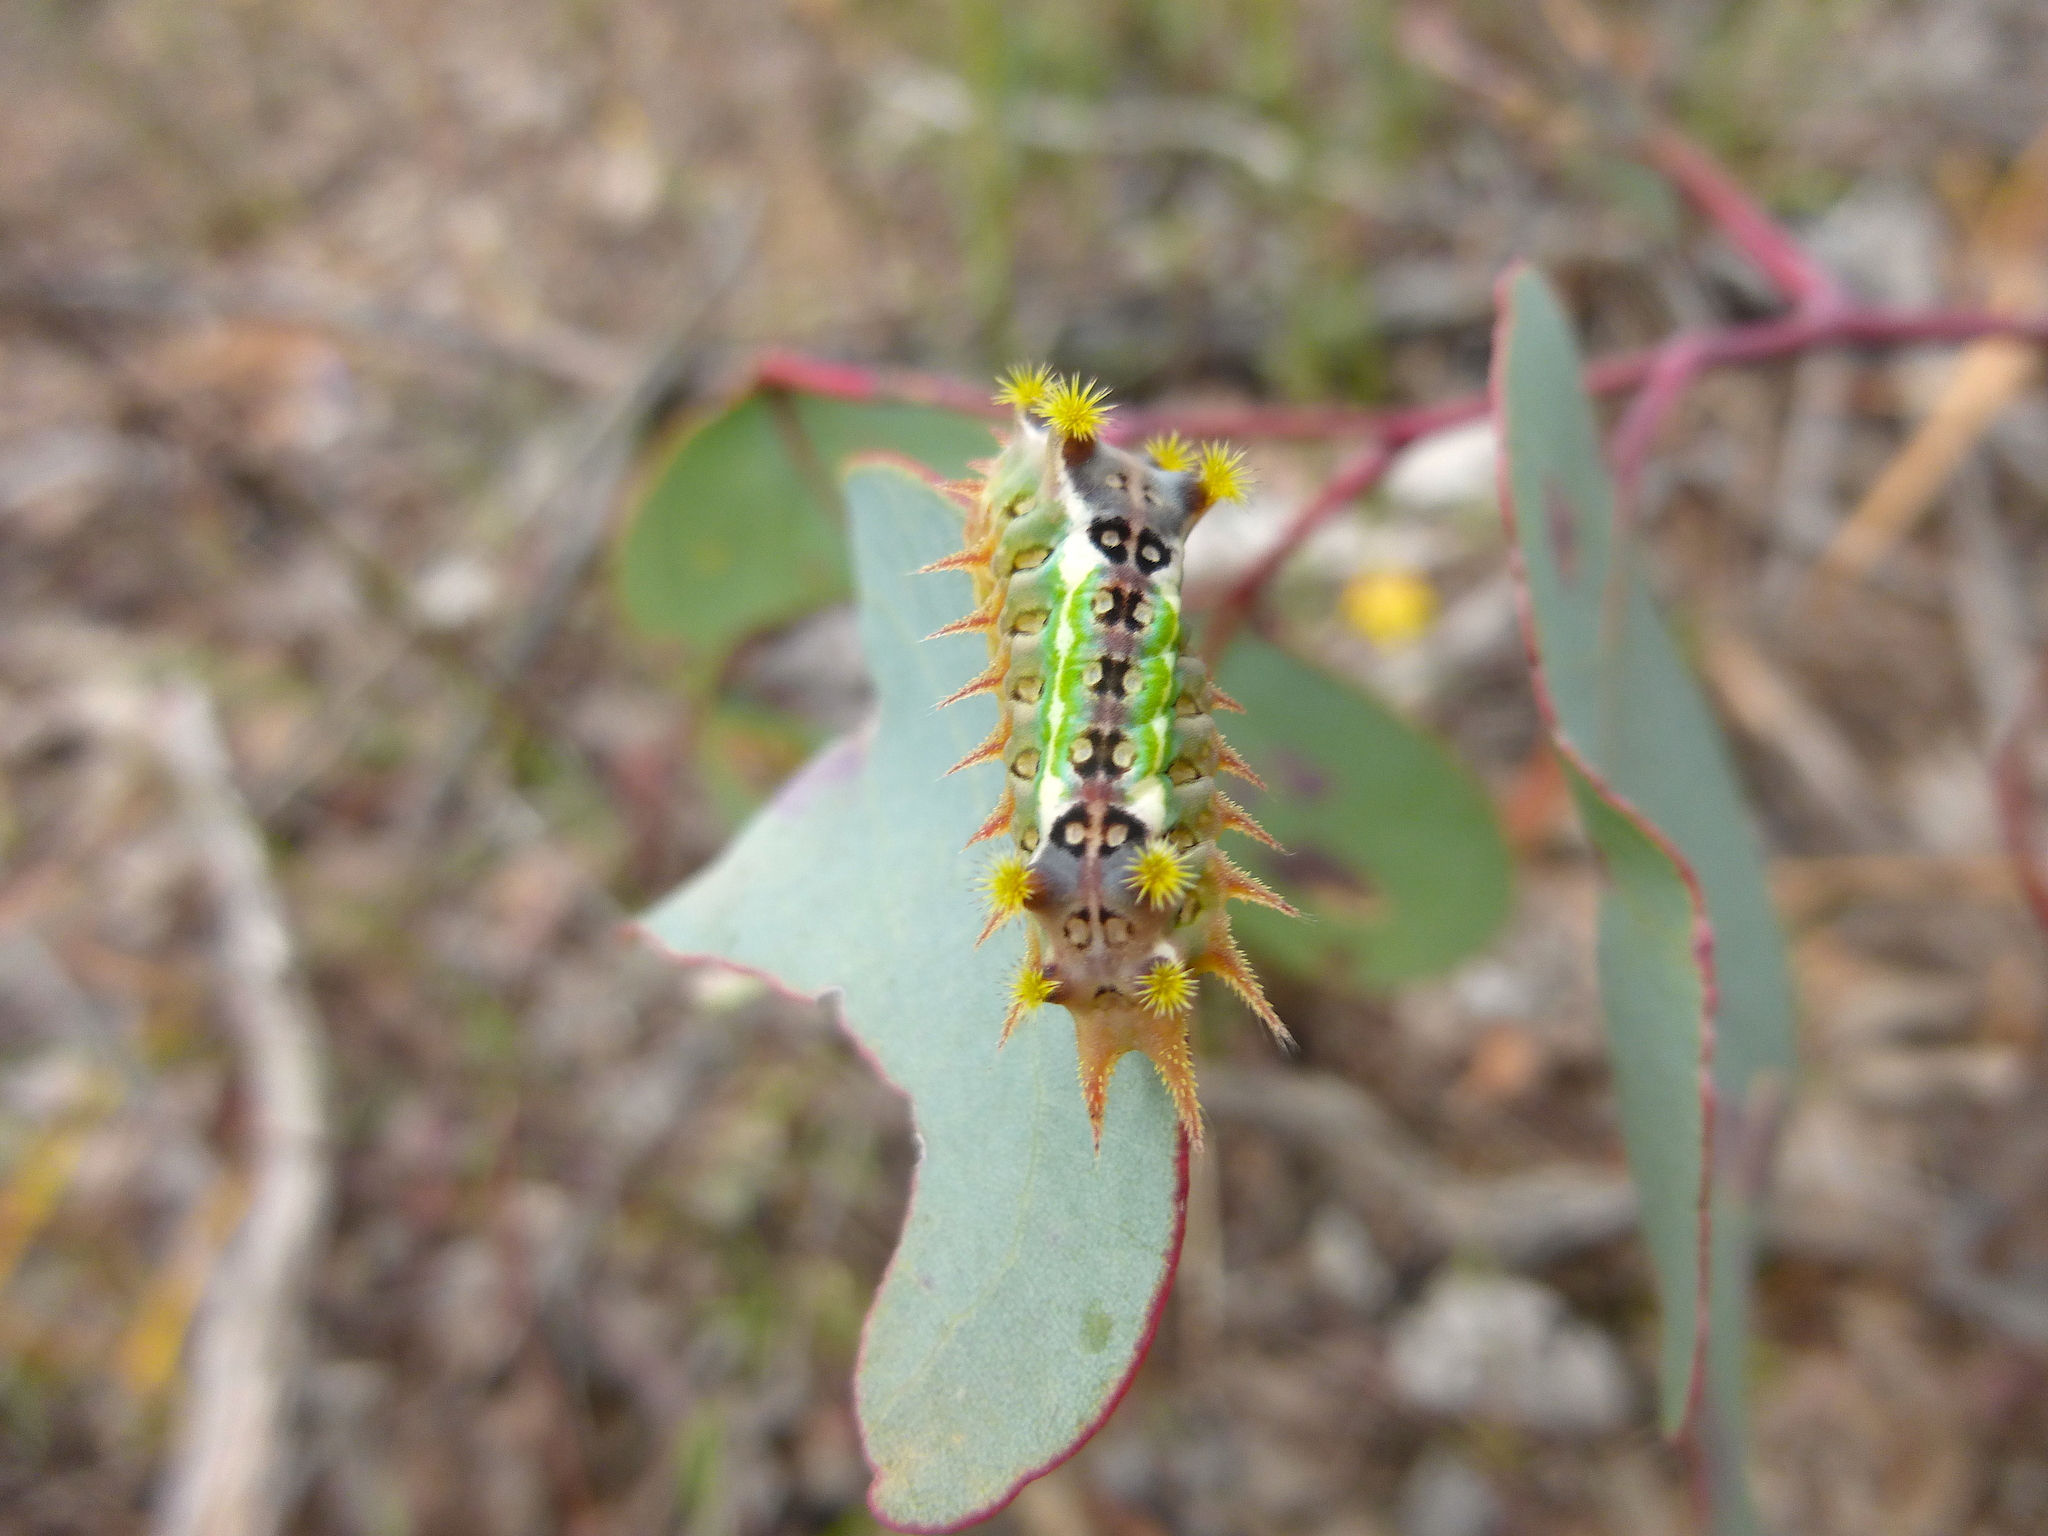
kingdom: Animalia
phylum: Arthropoda
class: Insecta
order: Lepidoptera
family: Limacodidae
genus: Doratifera
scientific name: Doratifera oxleyi
